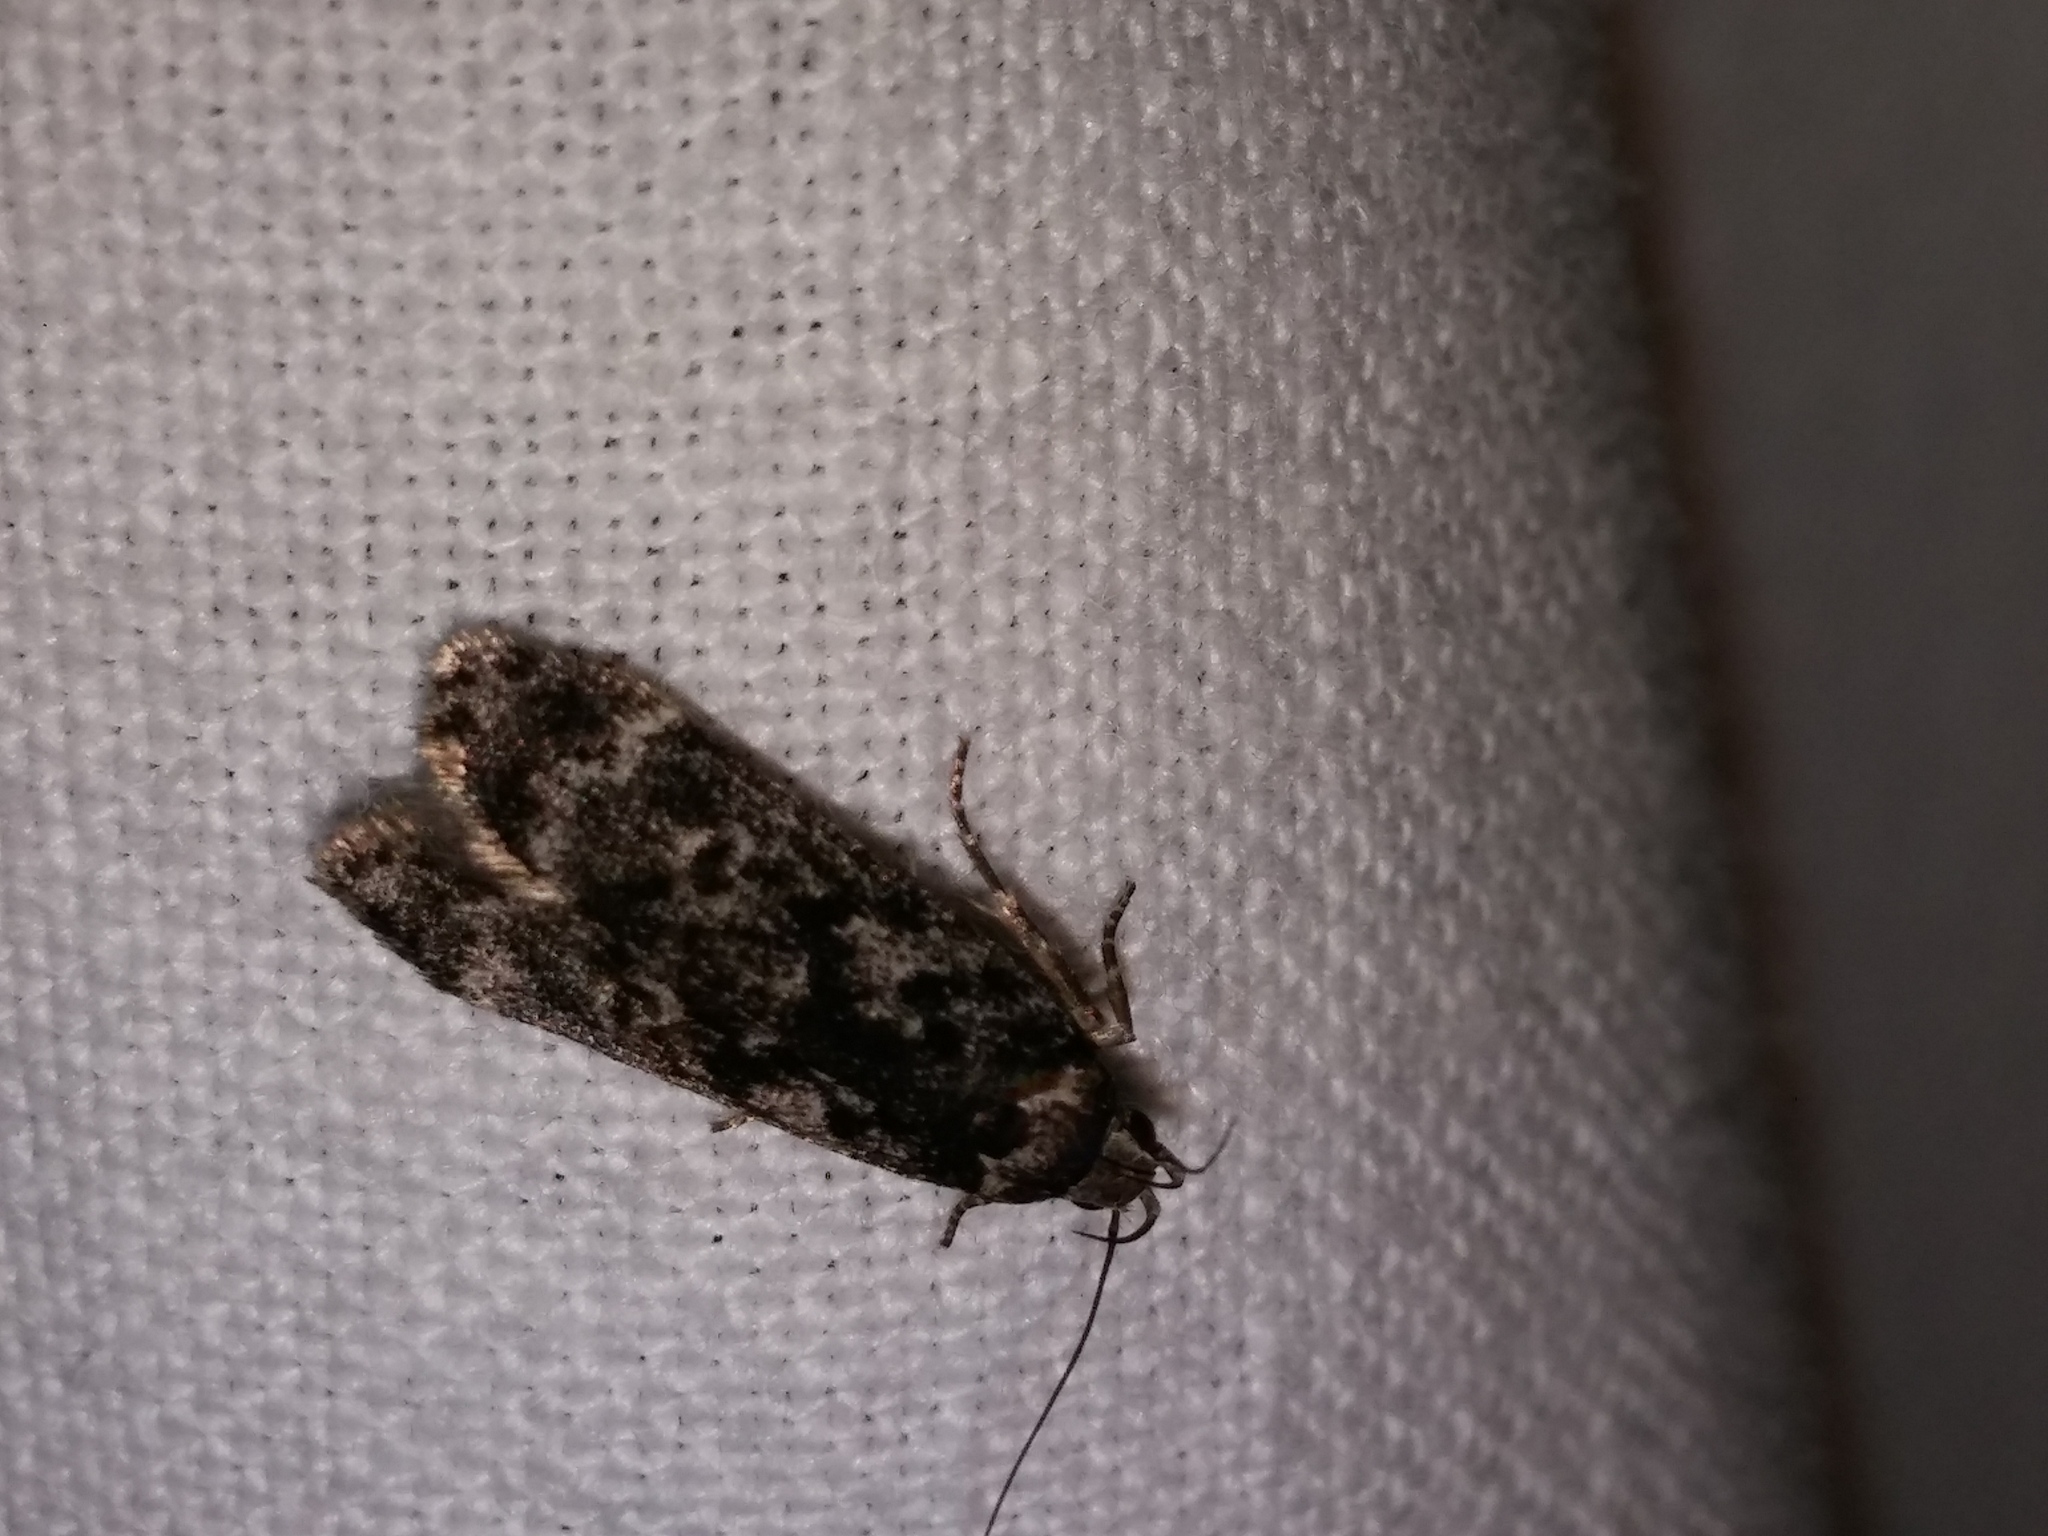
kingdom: Animalia
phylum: Arthropoda
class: Insecta
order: Lepidoptera
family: Gelechiidae
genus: Anacampsis
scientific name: Anacampsis niveopulvella
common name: Pale-headed aspen leafroller moth
